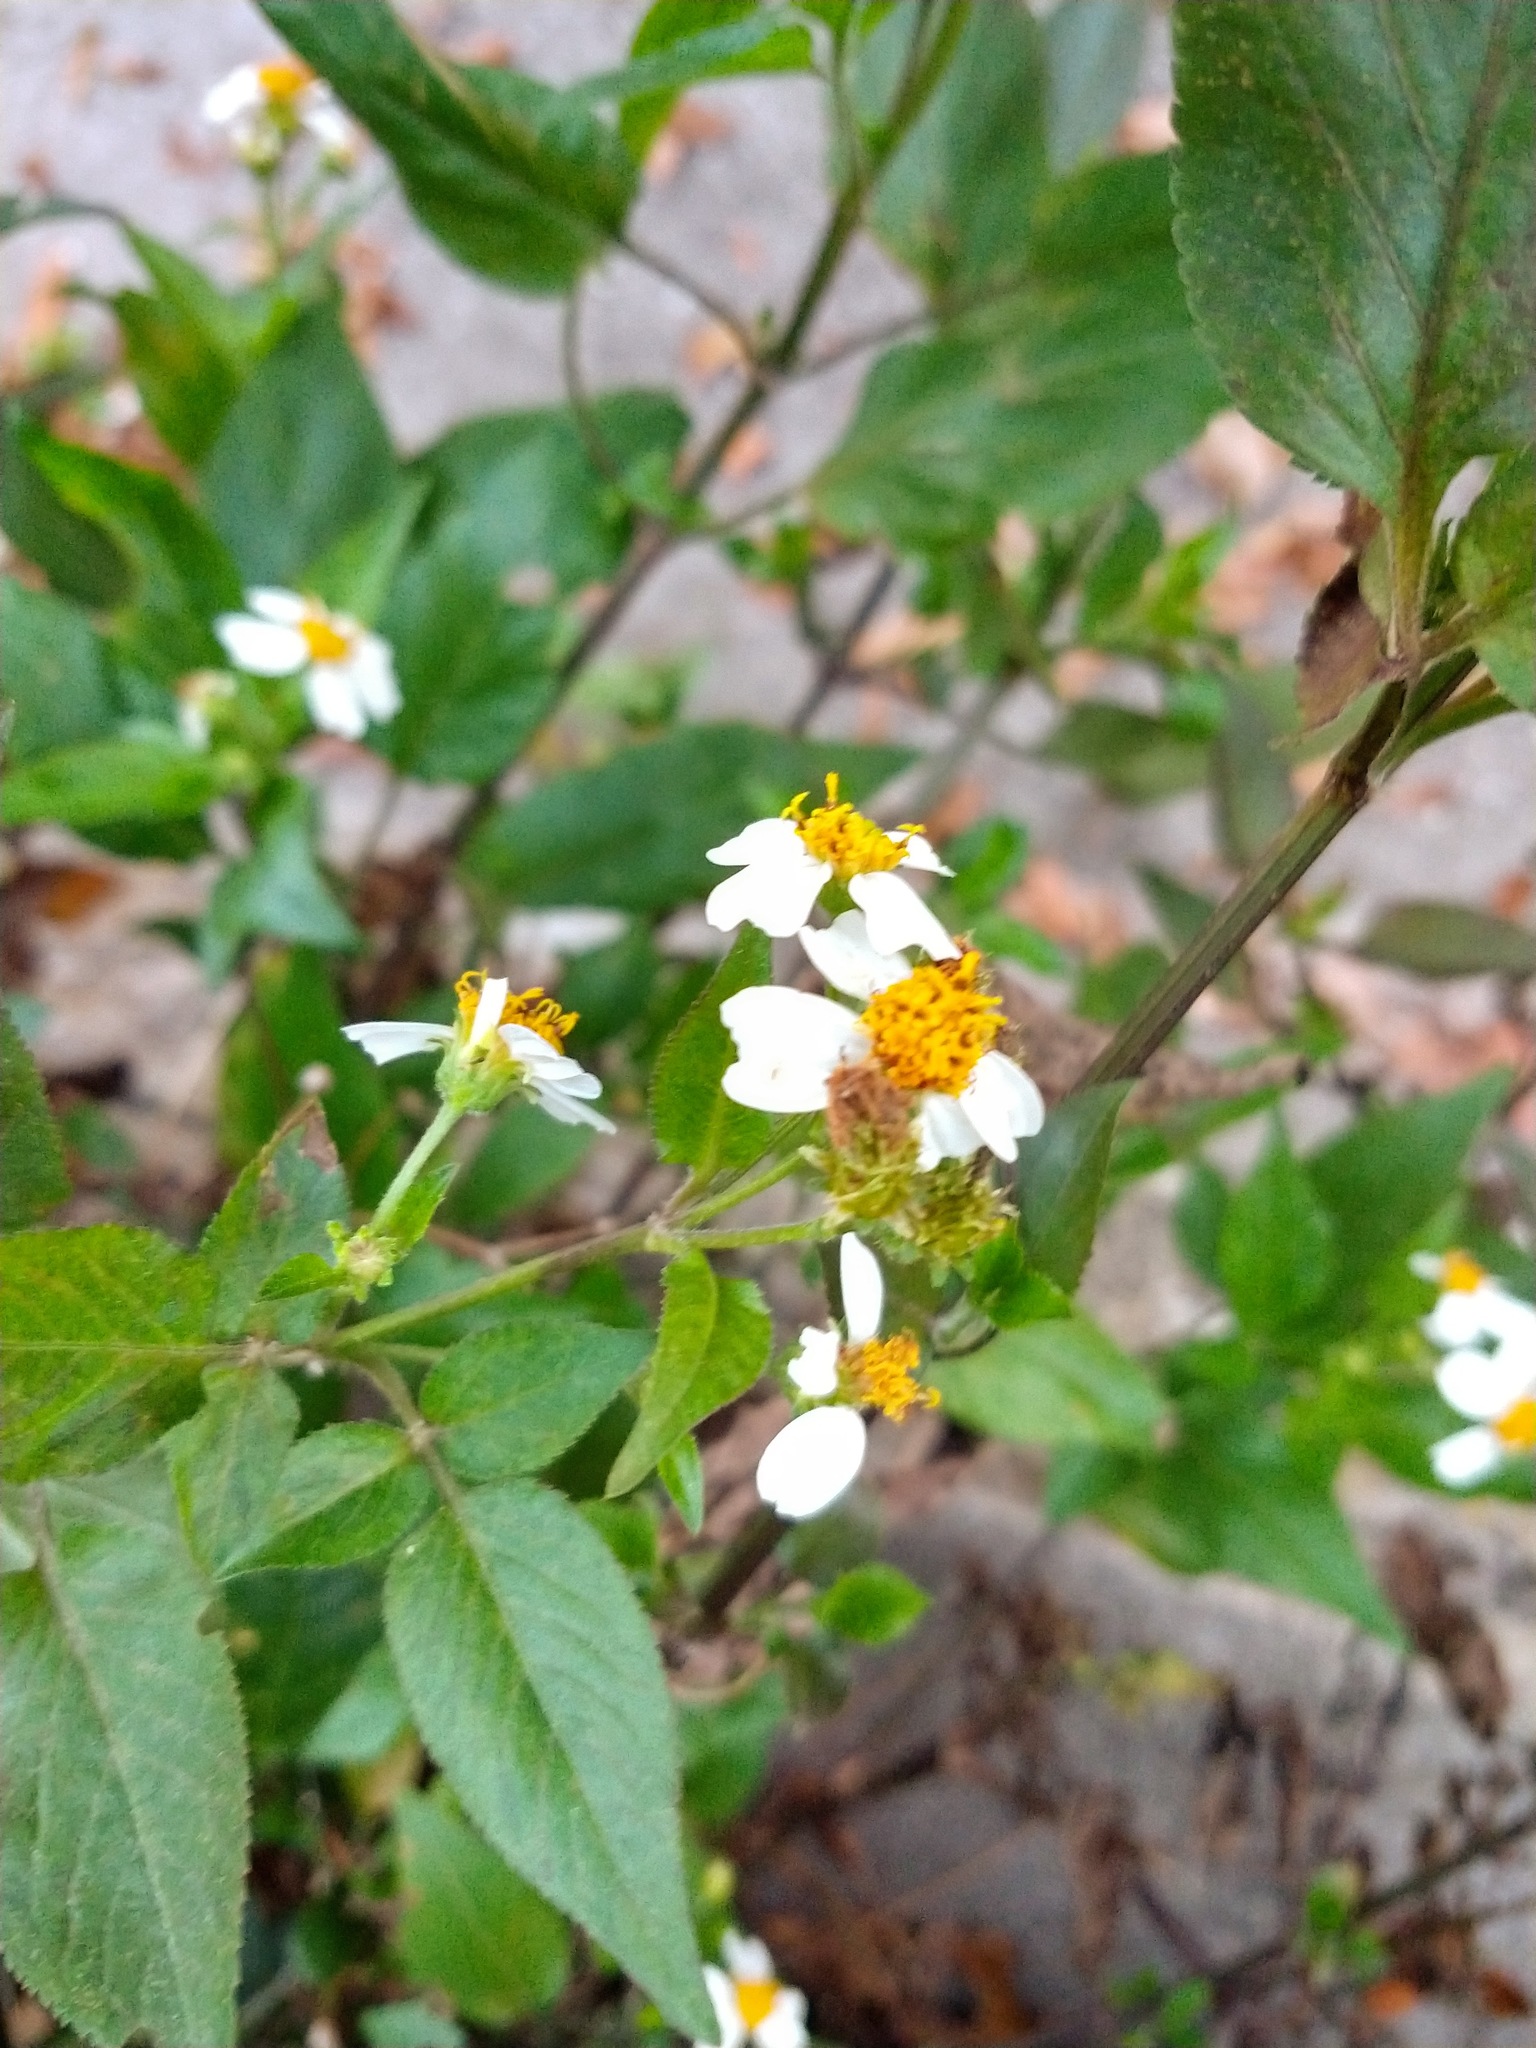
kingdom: Plantae
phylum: Tracheophyta
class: Magnoliopsida
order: Asterales
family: Asteraceae
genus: Bidens
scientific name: Bidens alba
